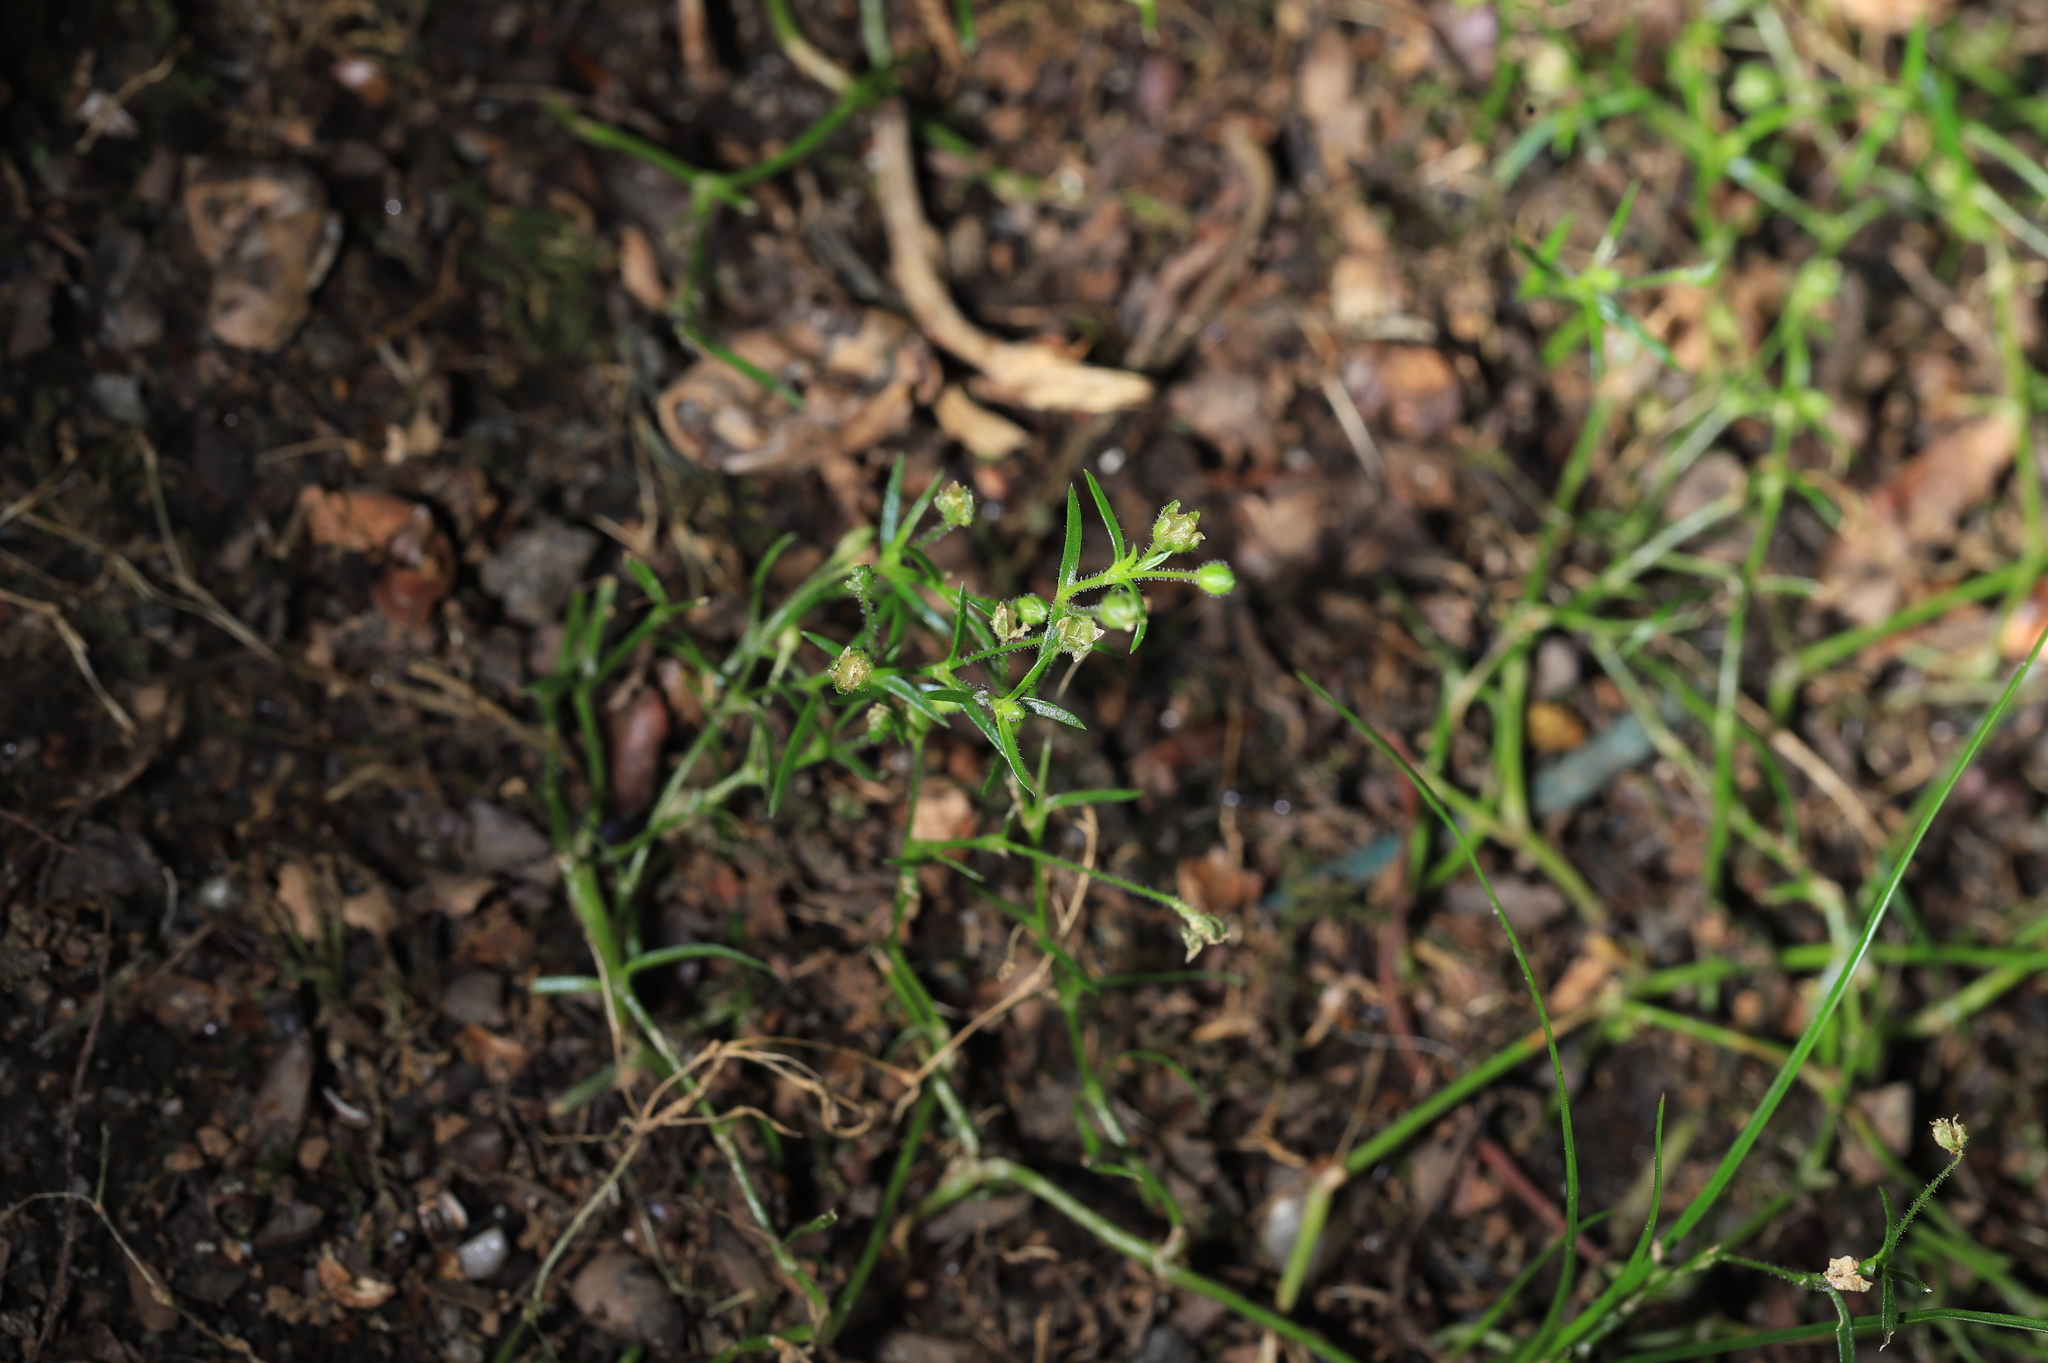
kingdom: Plantae
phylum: Tracheophyta
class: Magnoliopsida
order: Lamiales
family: Mazaceae
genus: Mazus
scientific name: Mazus pumilus
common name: Japanese mazus
